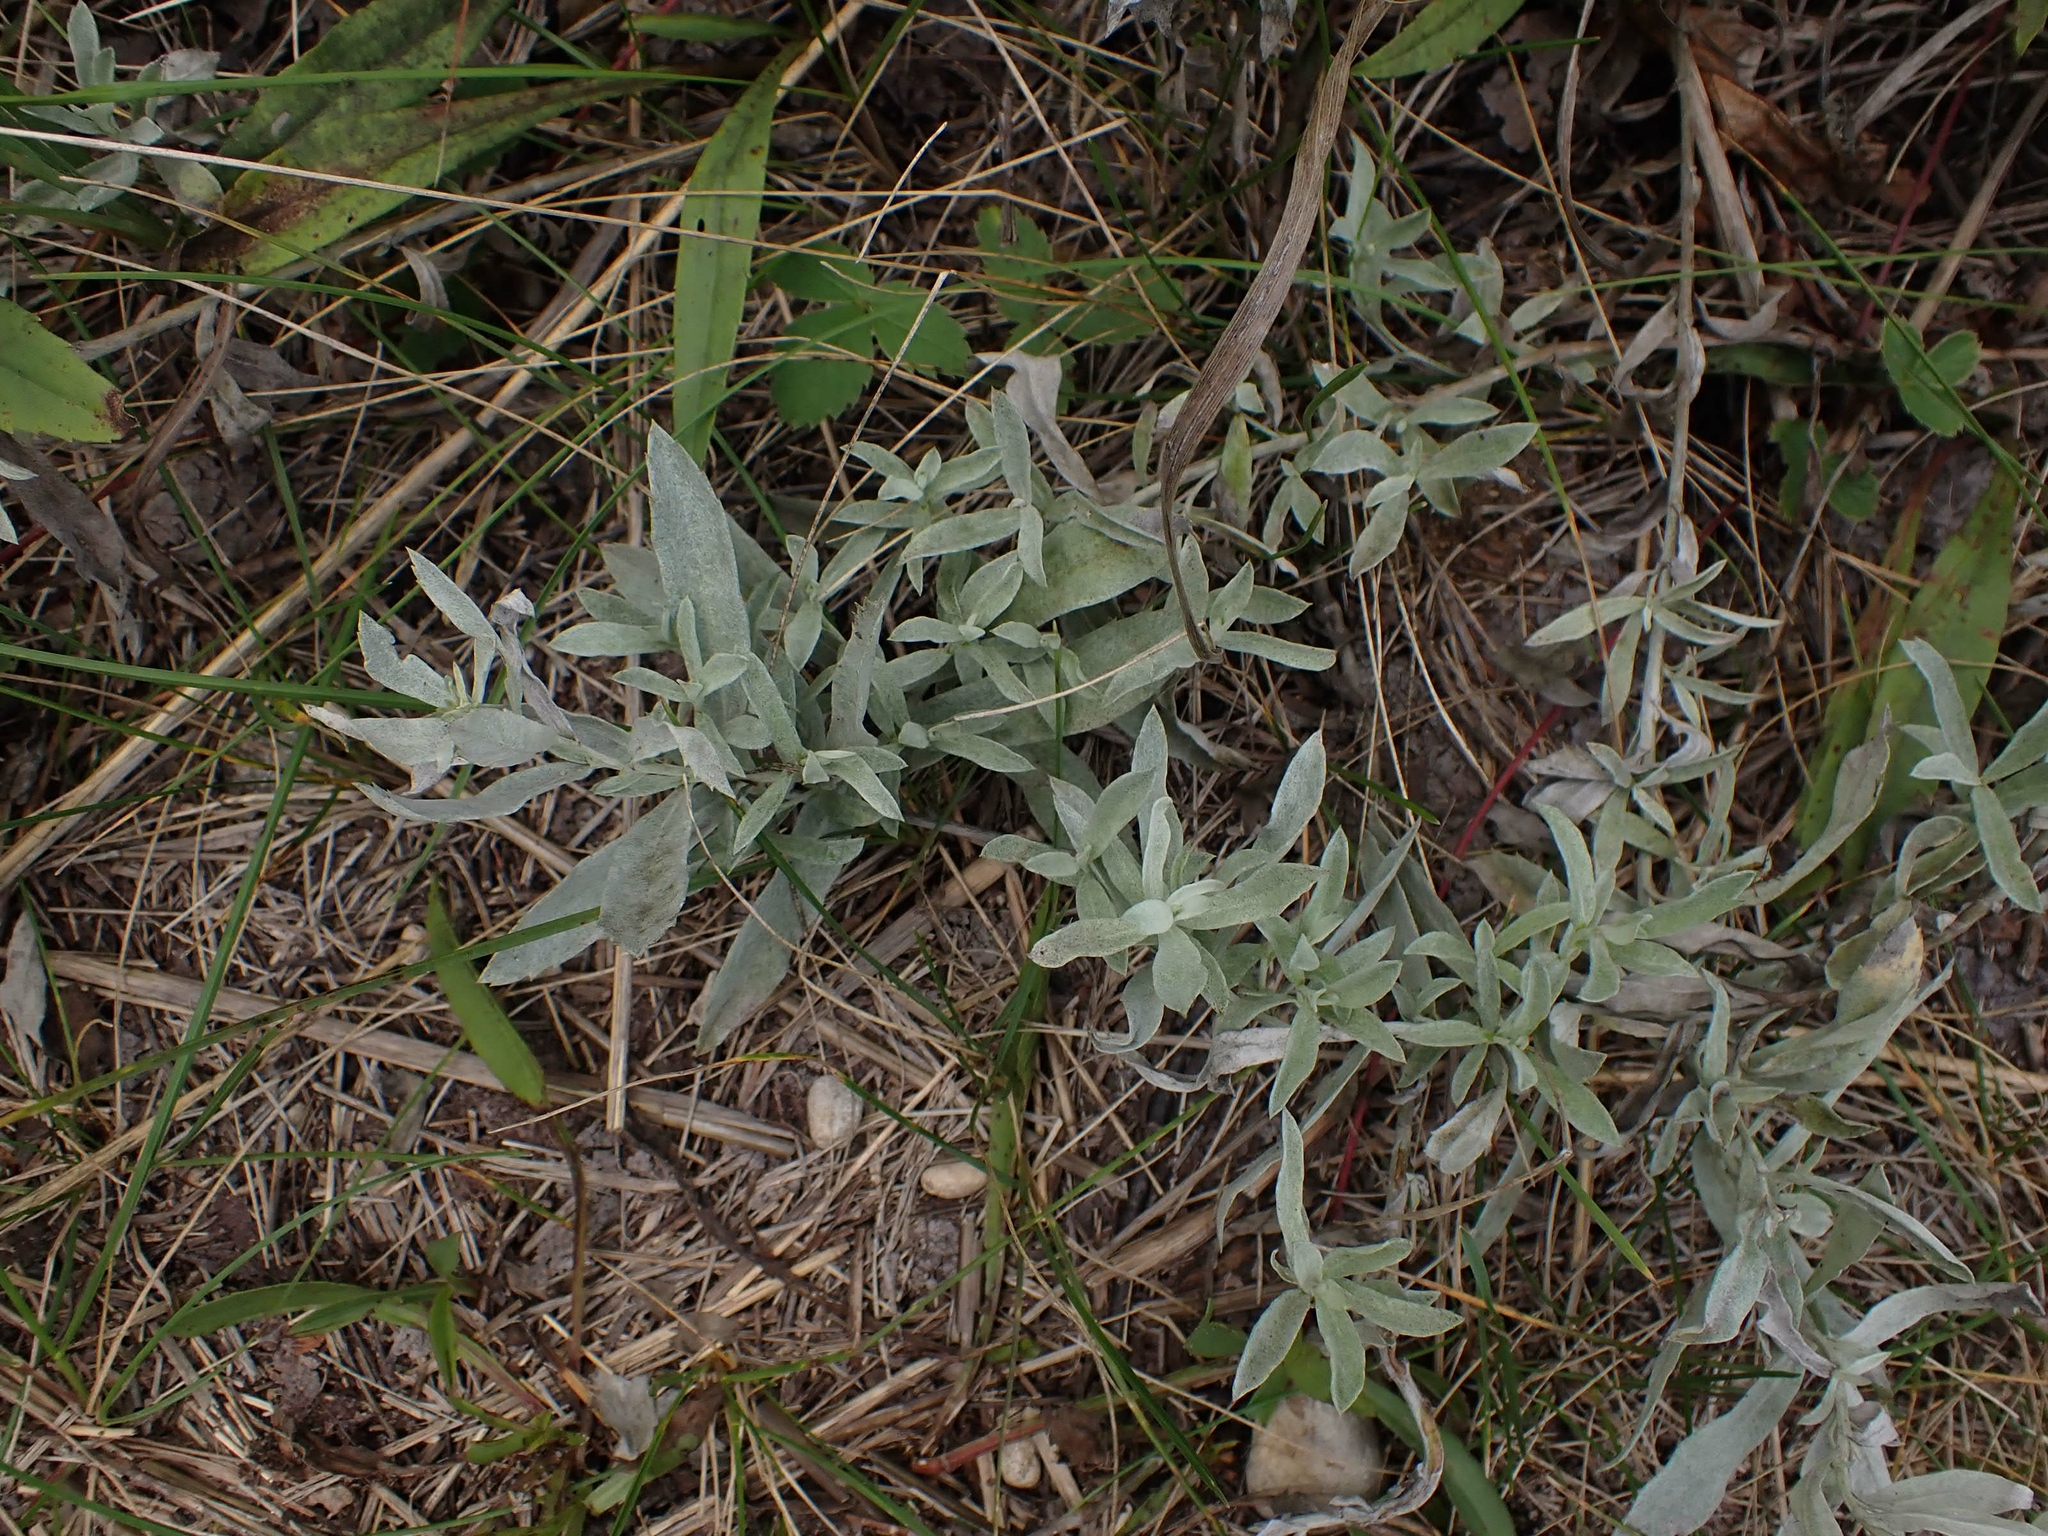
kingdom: Plantae
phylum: Tracheophyta
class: Magnoliopsida
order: Asterales
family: Asteraceae
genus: Artemisia
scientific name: Artemisia ludoviciana
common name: Western mugwort
